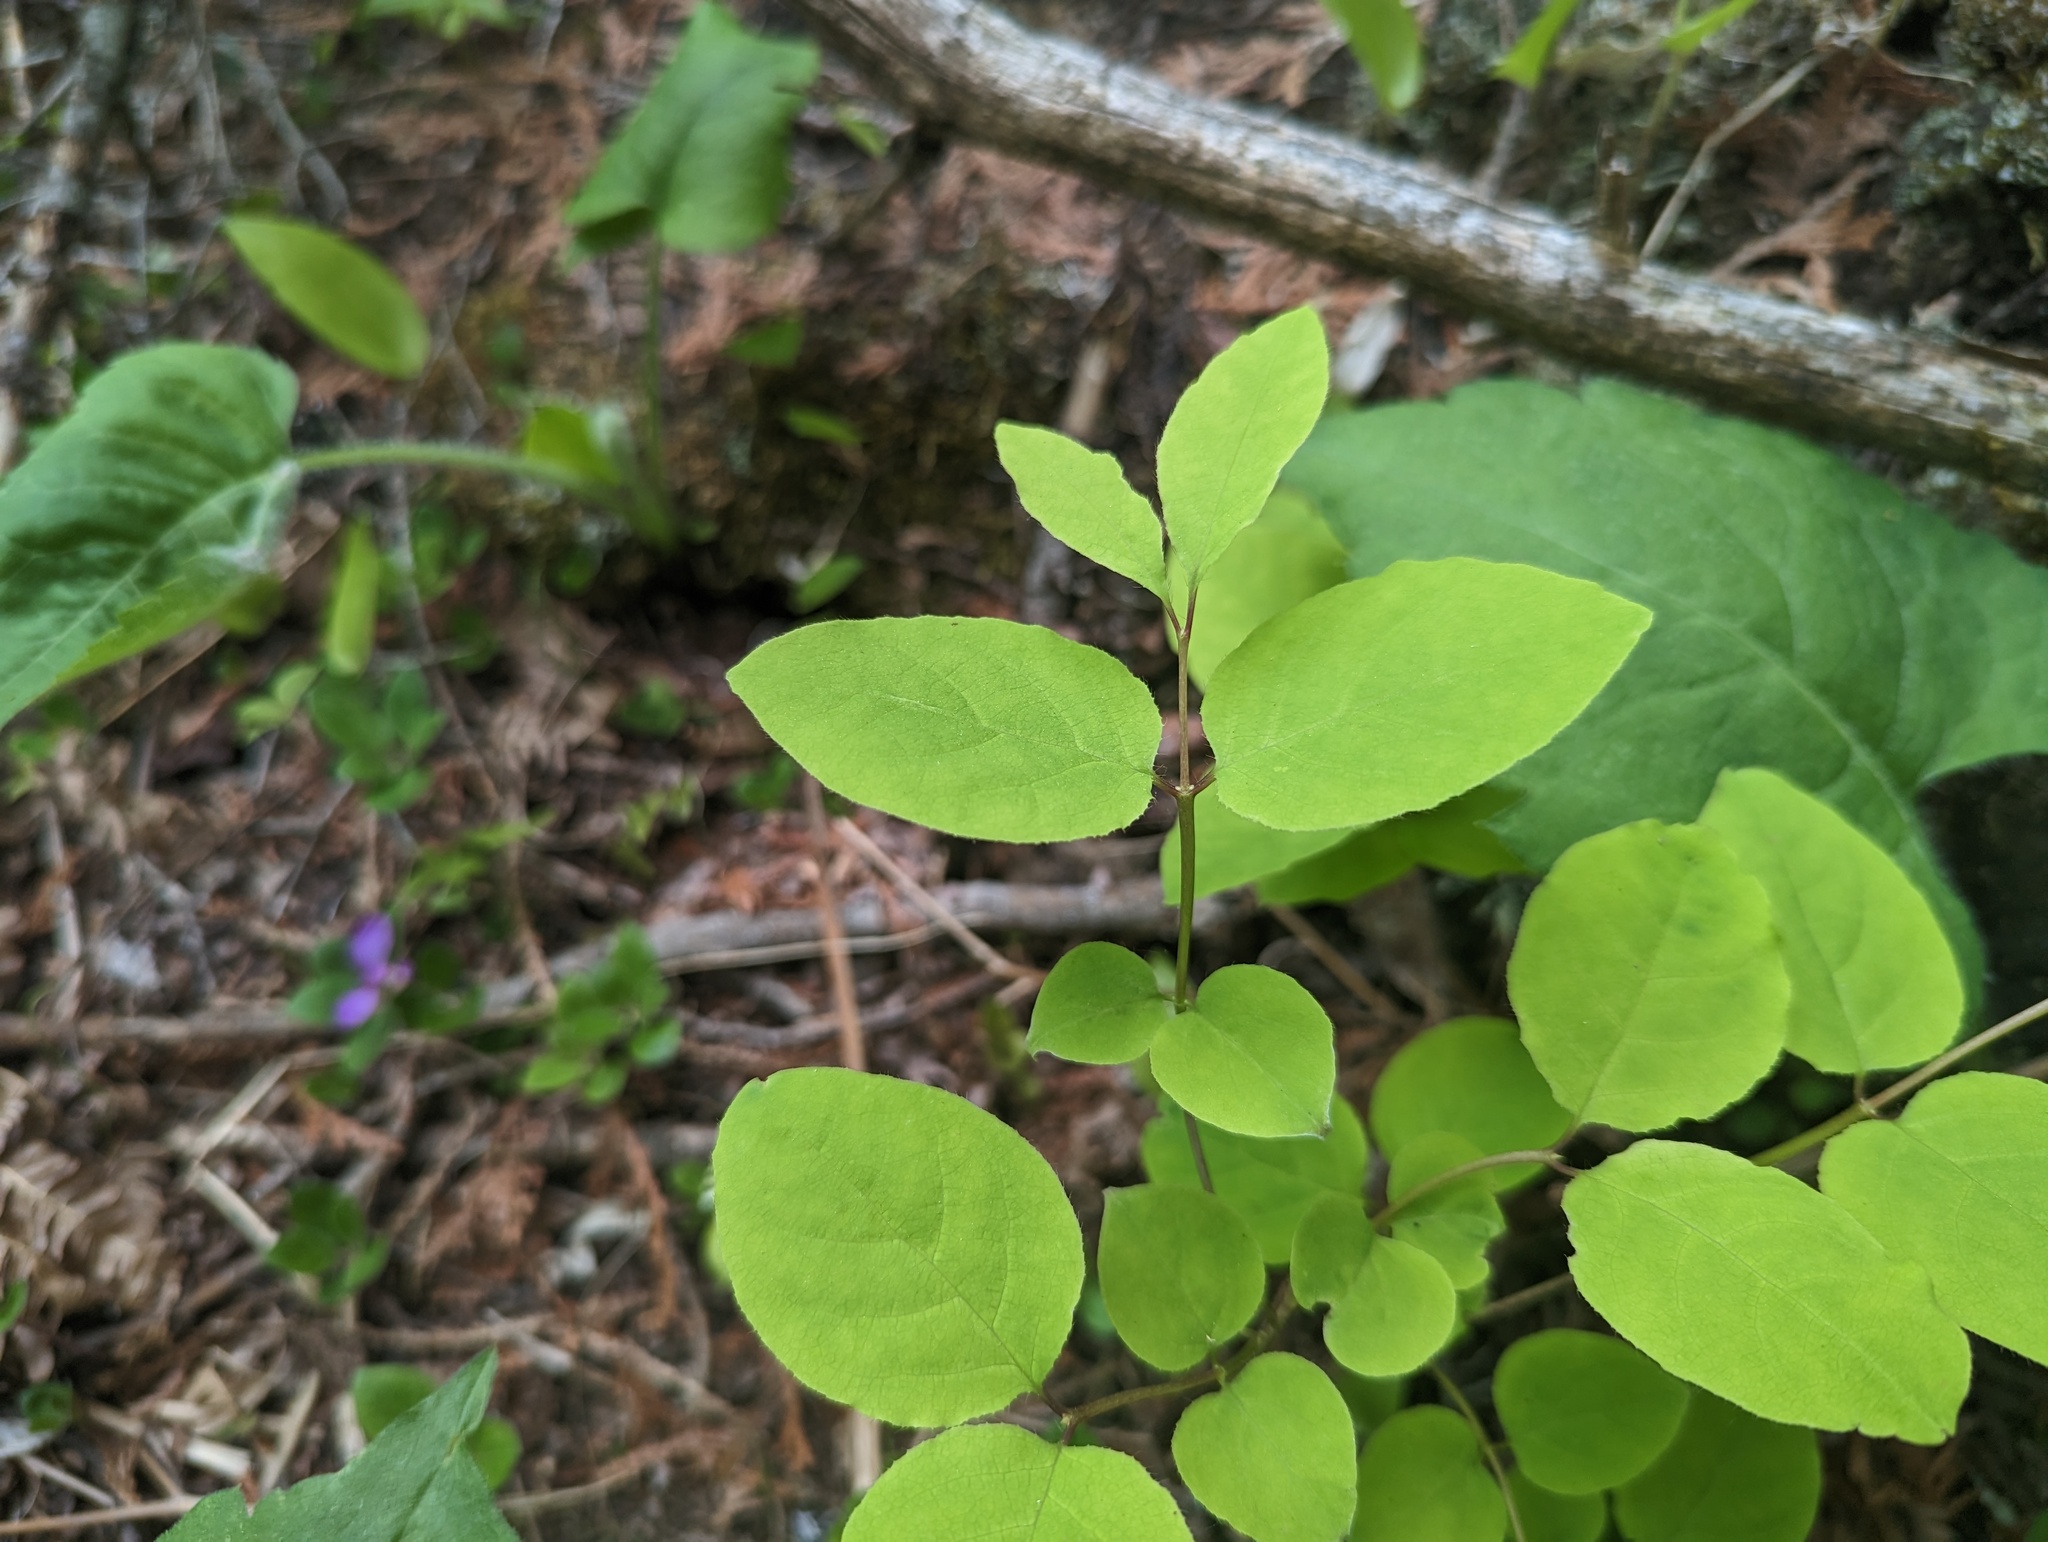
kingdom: Plantae
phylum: Tracheophyta
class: Magnoliopsida
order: Dipsacales
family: Caprifoliaceae
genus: Lonicera
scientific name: Lonicera canadensis
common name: American fly-honeysuckle
